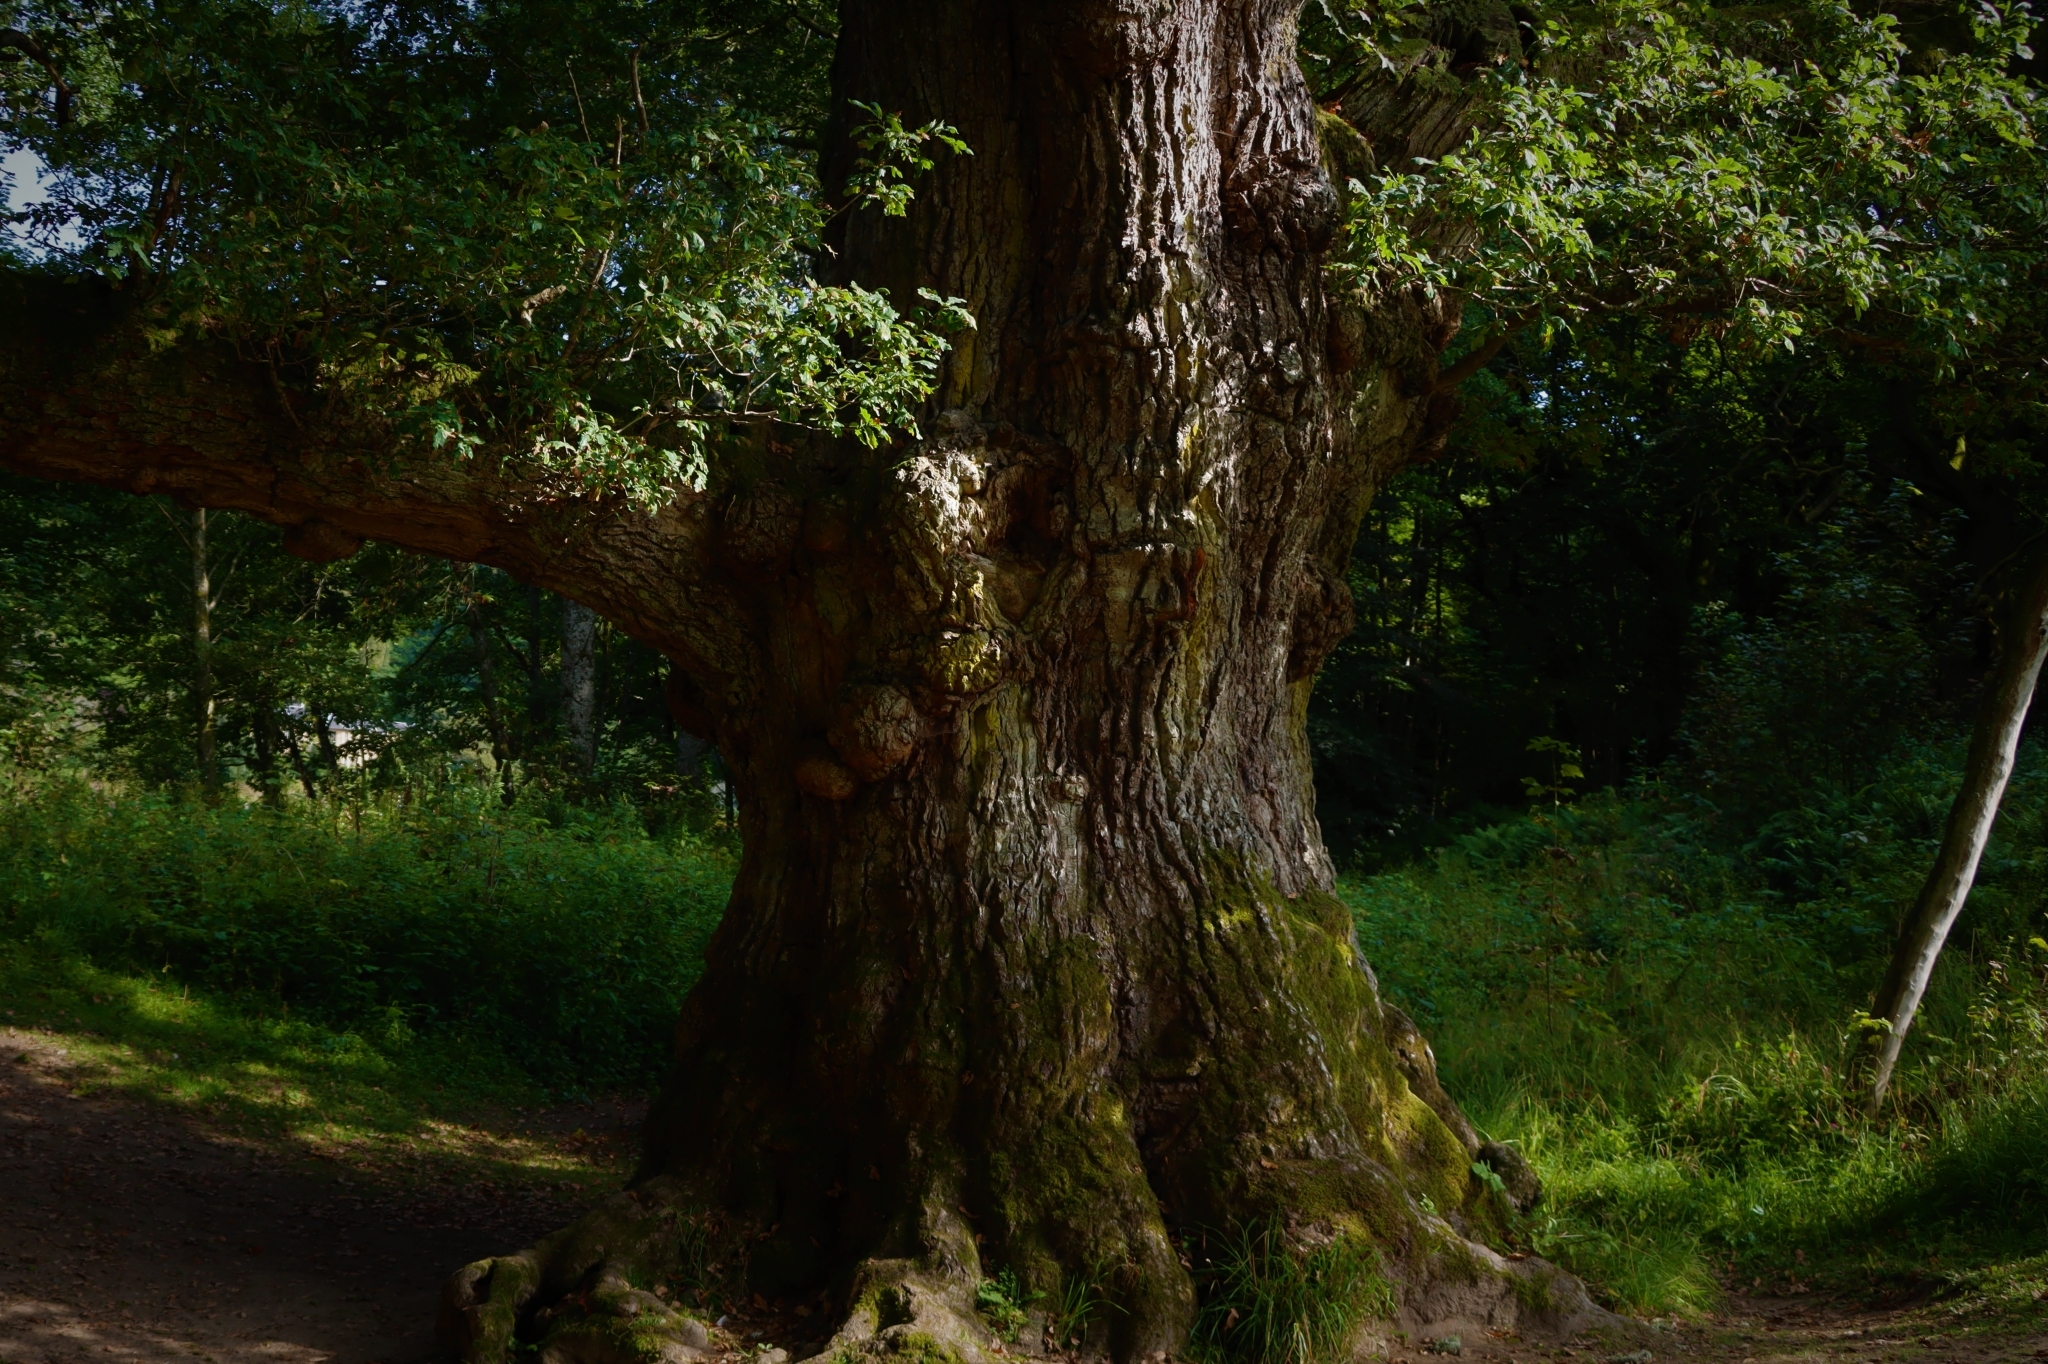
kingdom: Plantae
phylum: Tracheophyta
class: Magnoliopsida
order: Fagales
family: Fagaceae
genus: Quercus
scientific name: Quercus petraea
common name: Sessile oak
